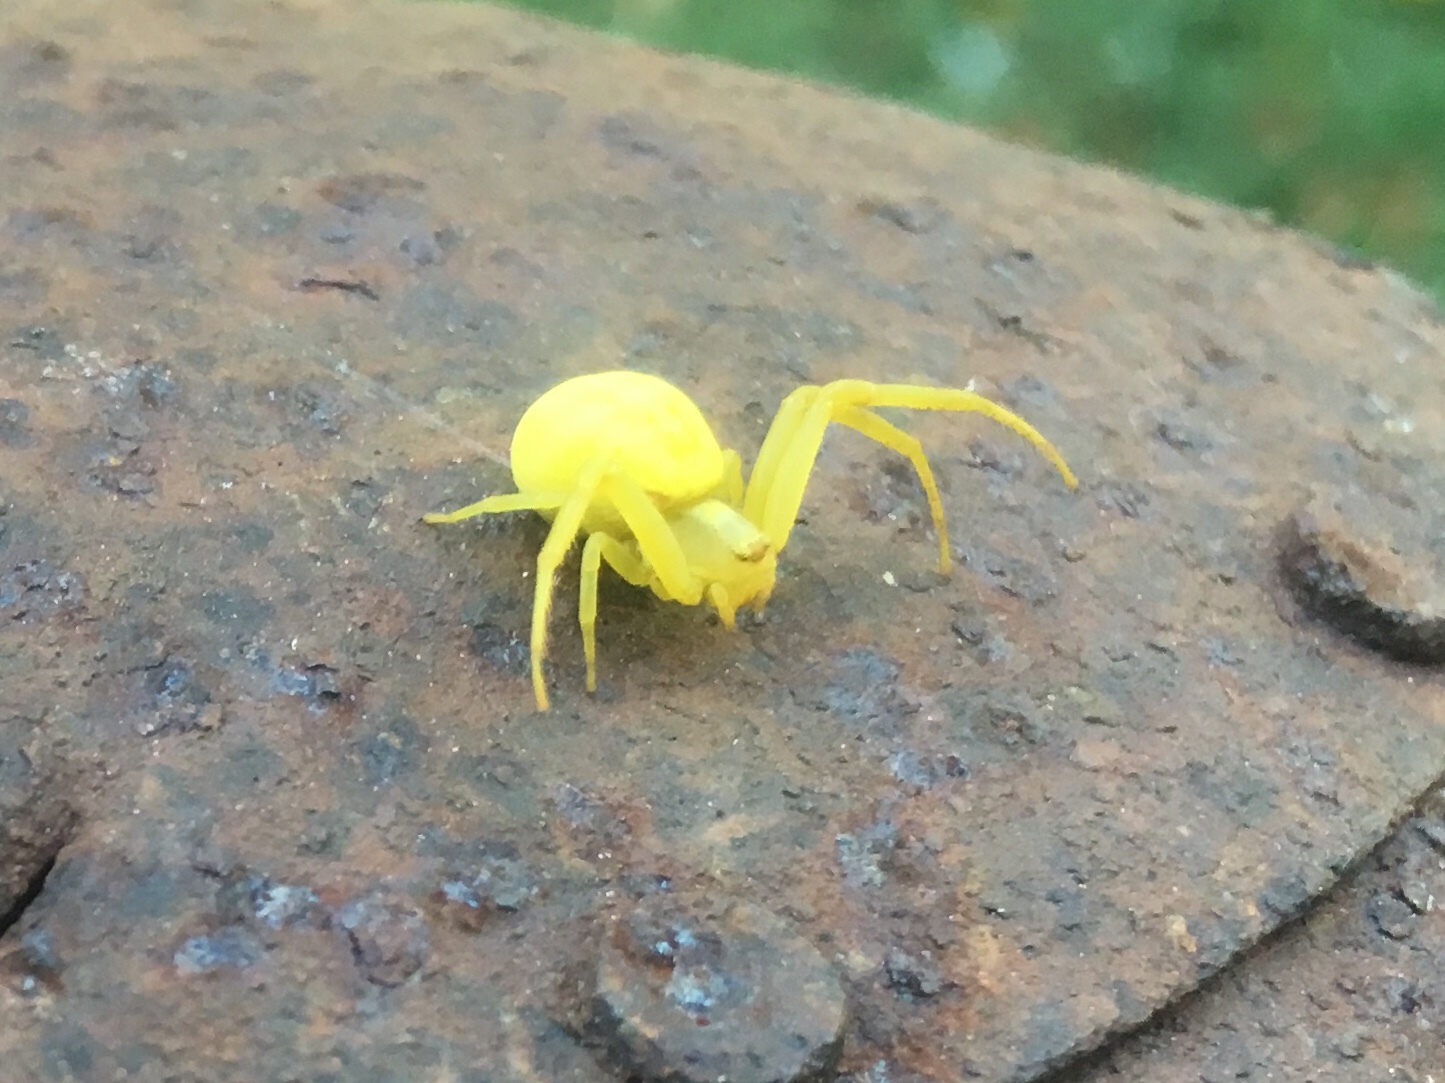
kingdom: Animalia
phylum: Arthropoda
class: Arachnida
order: Araneae
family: Thomisidae
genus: Misumena
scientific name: Misumena vatia
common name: Goldenrod crab spider
